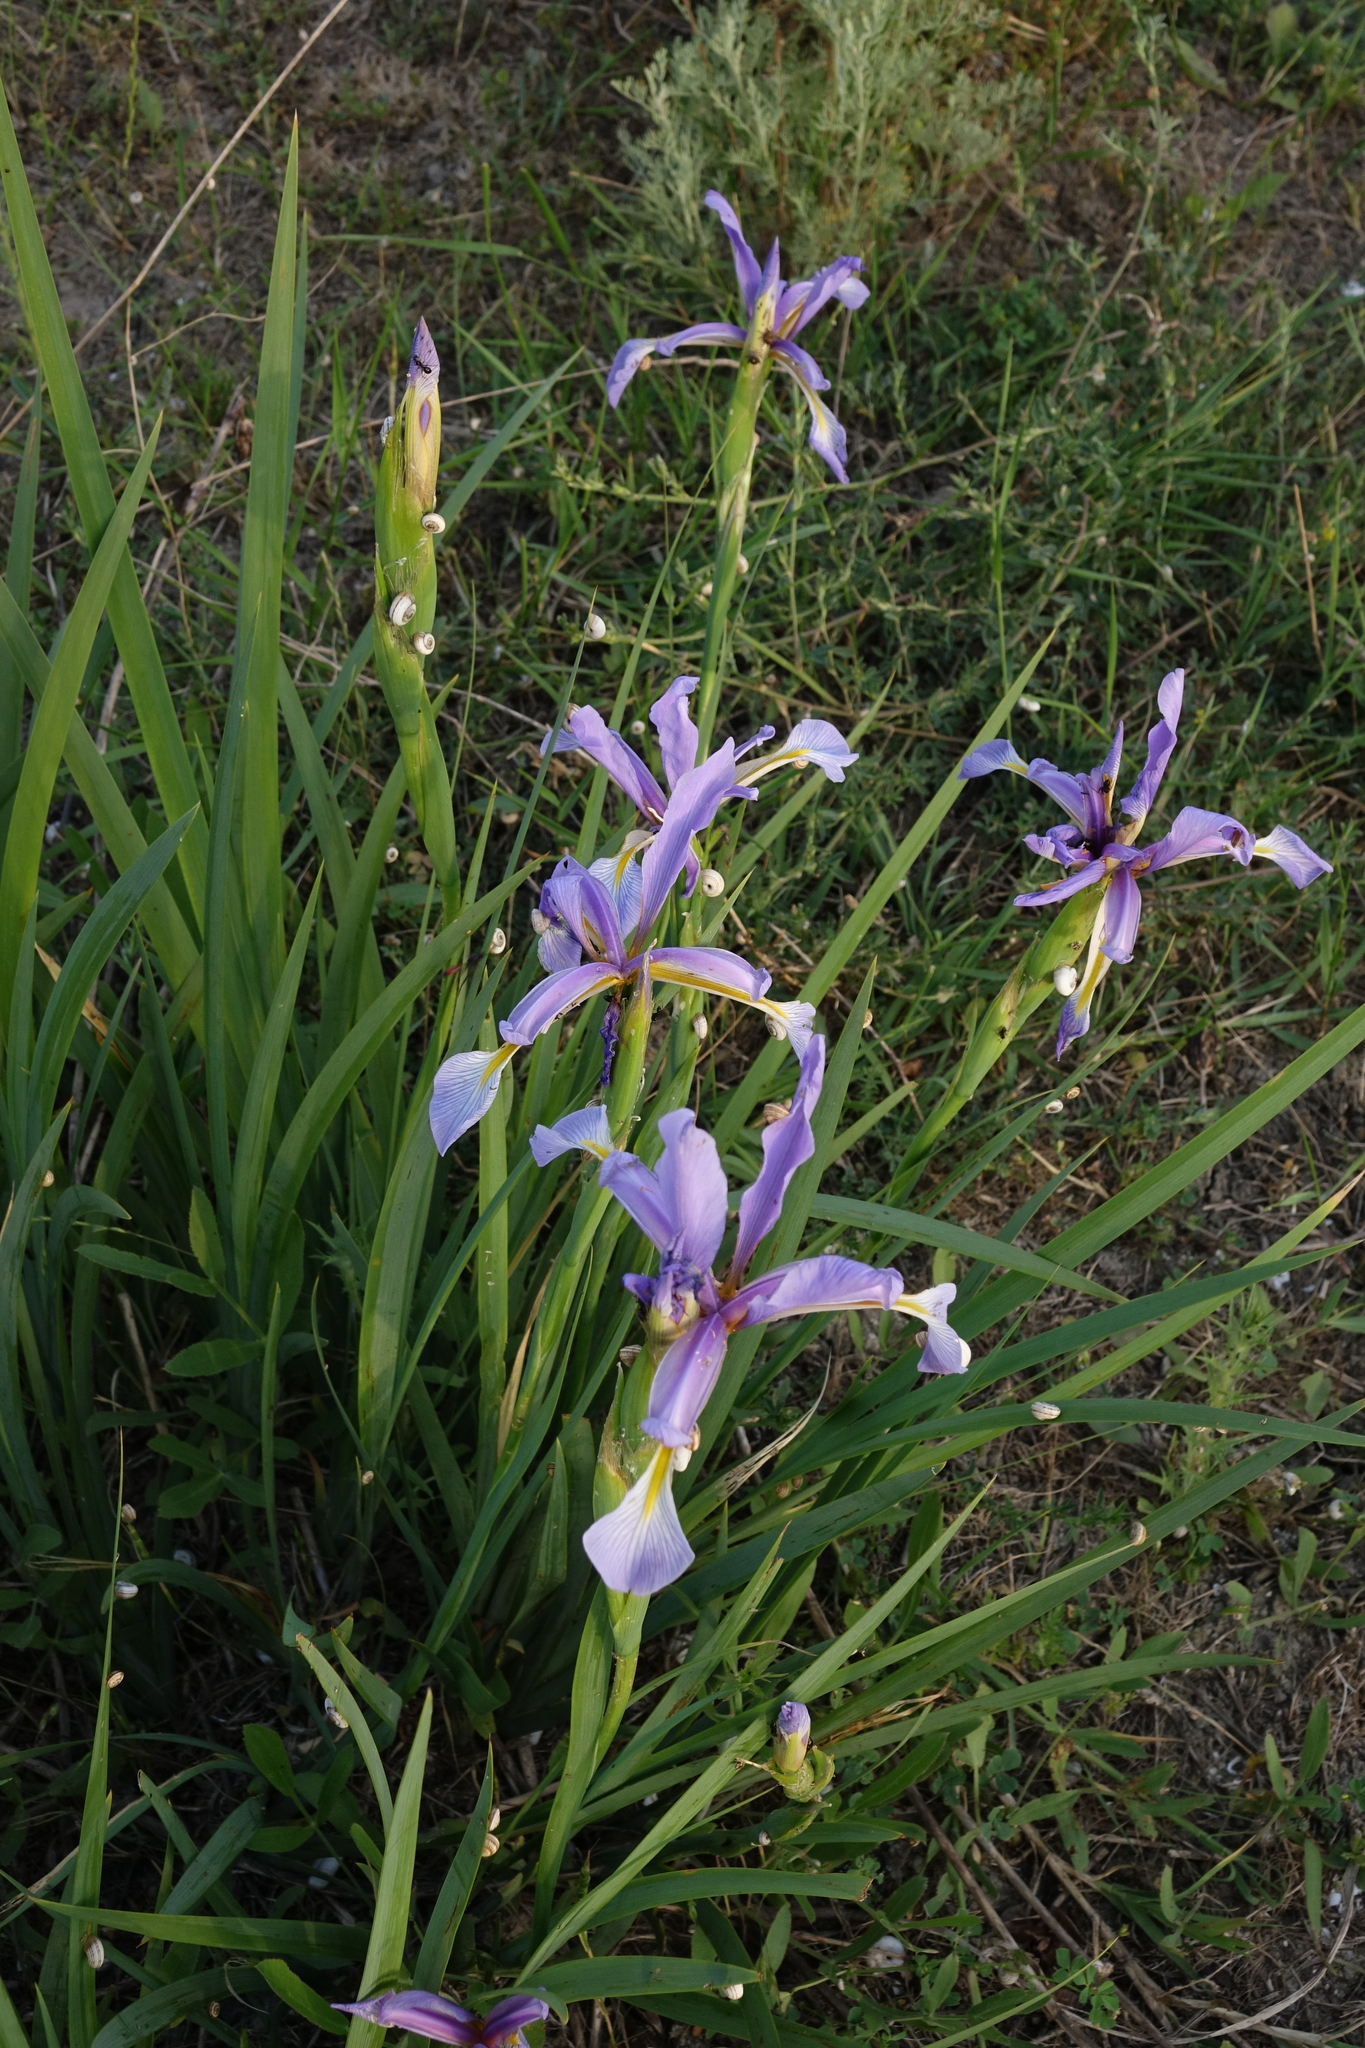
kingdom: Plantae
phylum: Tracheophyta
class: Liliopsida
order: Asparagales
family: Iridaceae
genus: Iris
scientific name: Iris pseudonotha
